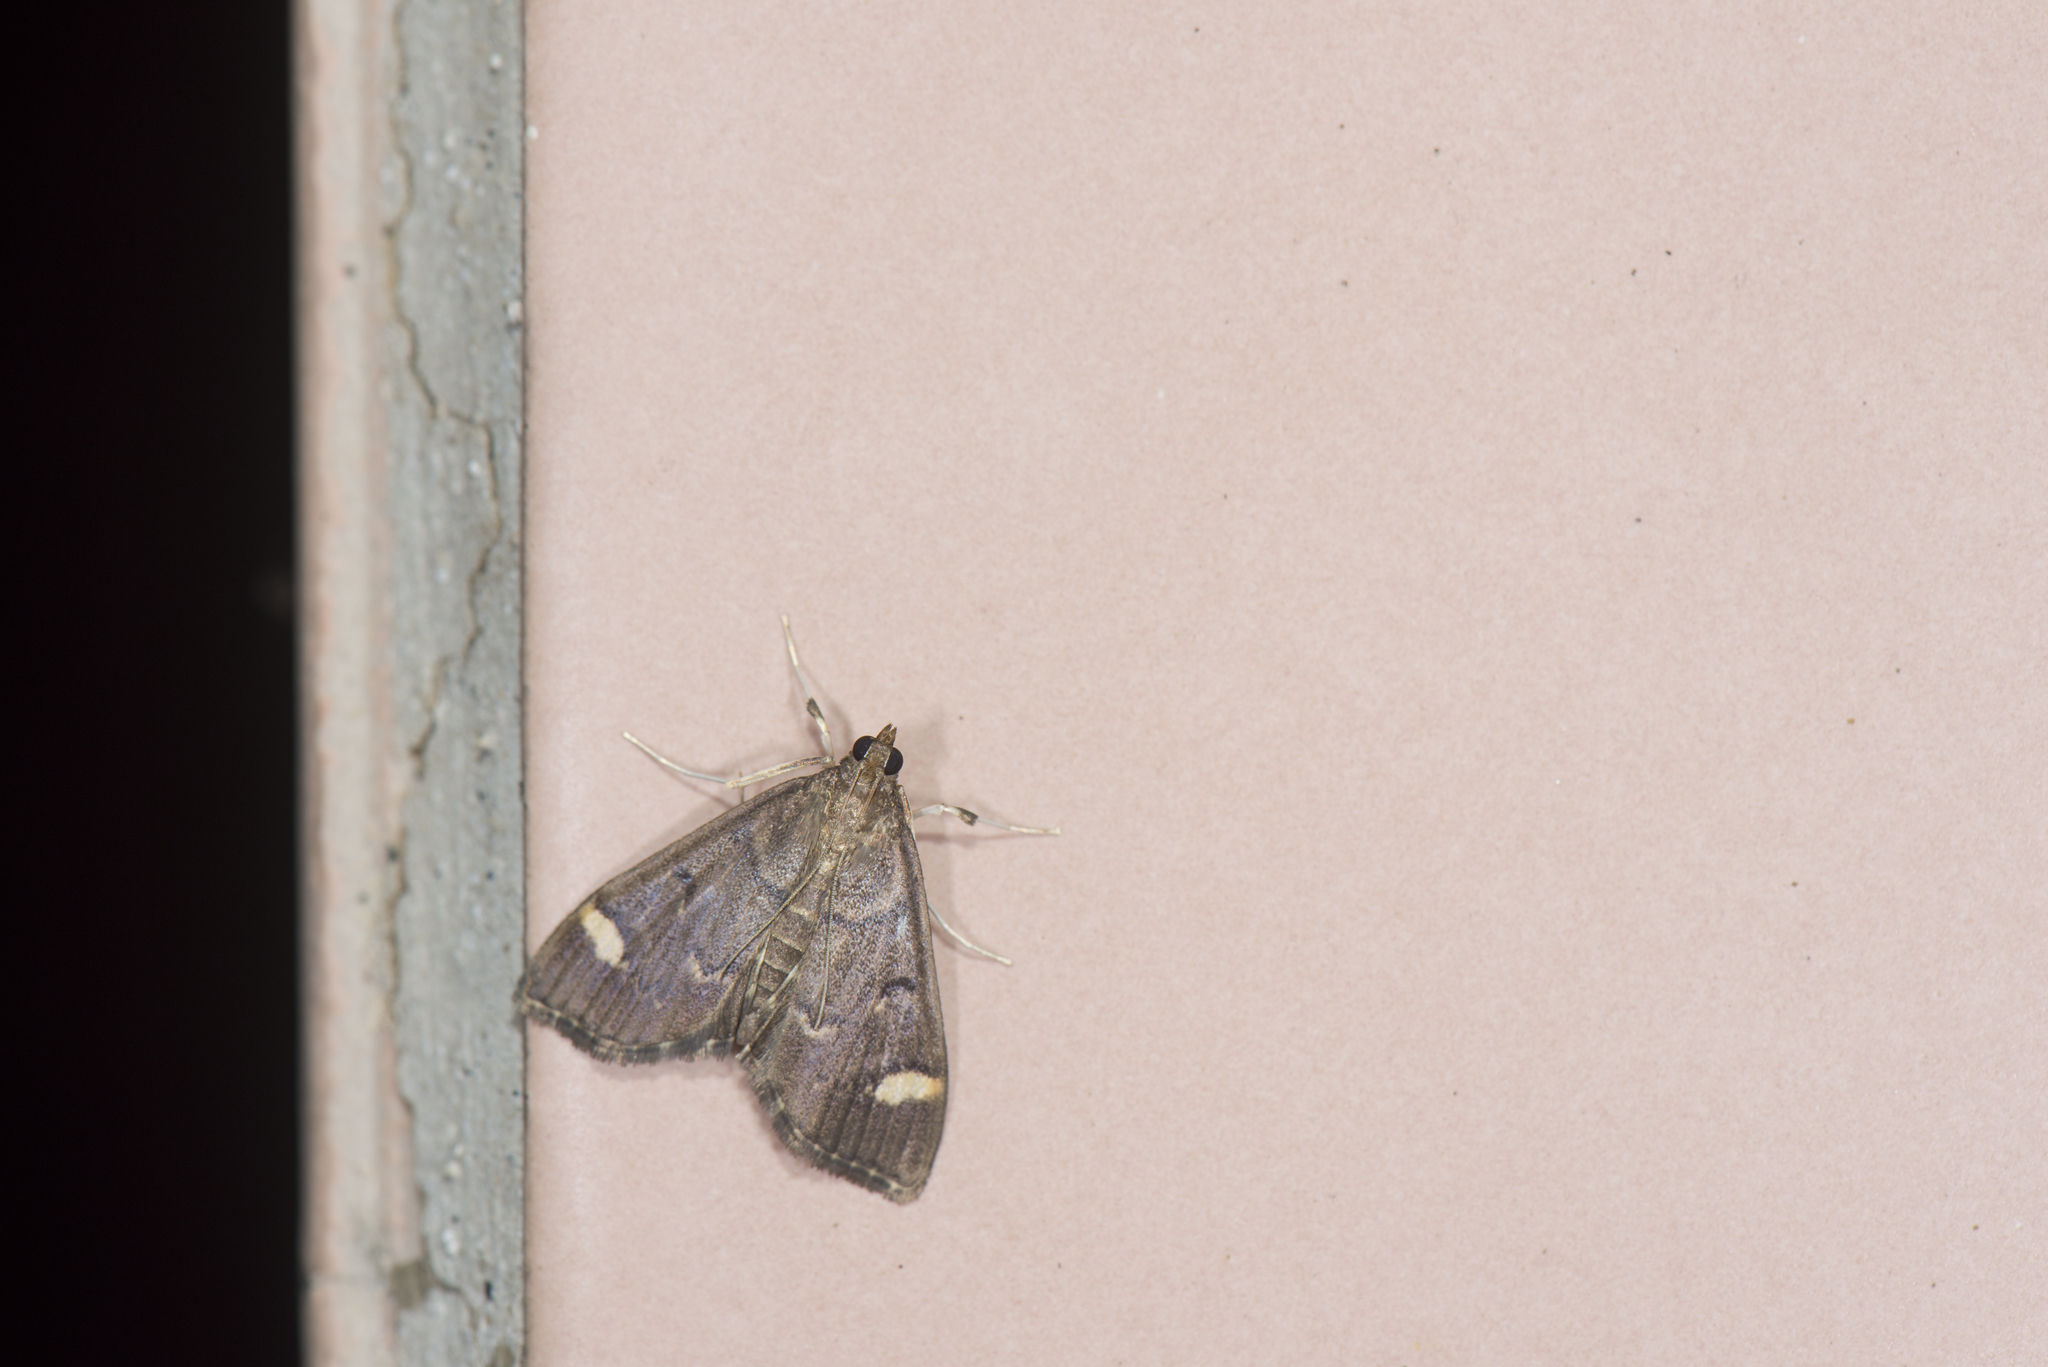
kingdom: Animalia
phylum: Arthropoda
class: Insecta
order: Lepidoptera
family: Crambidae
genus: Patania
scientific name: Patania deficiens
